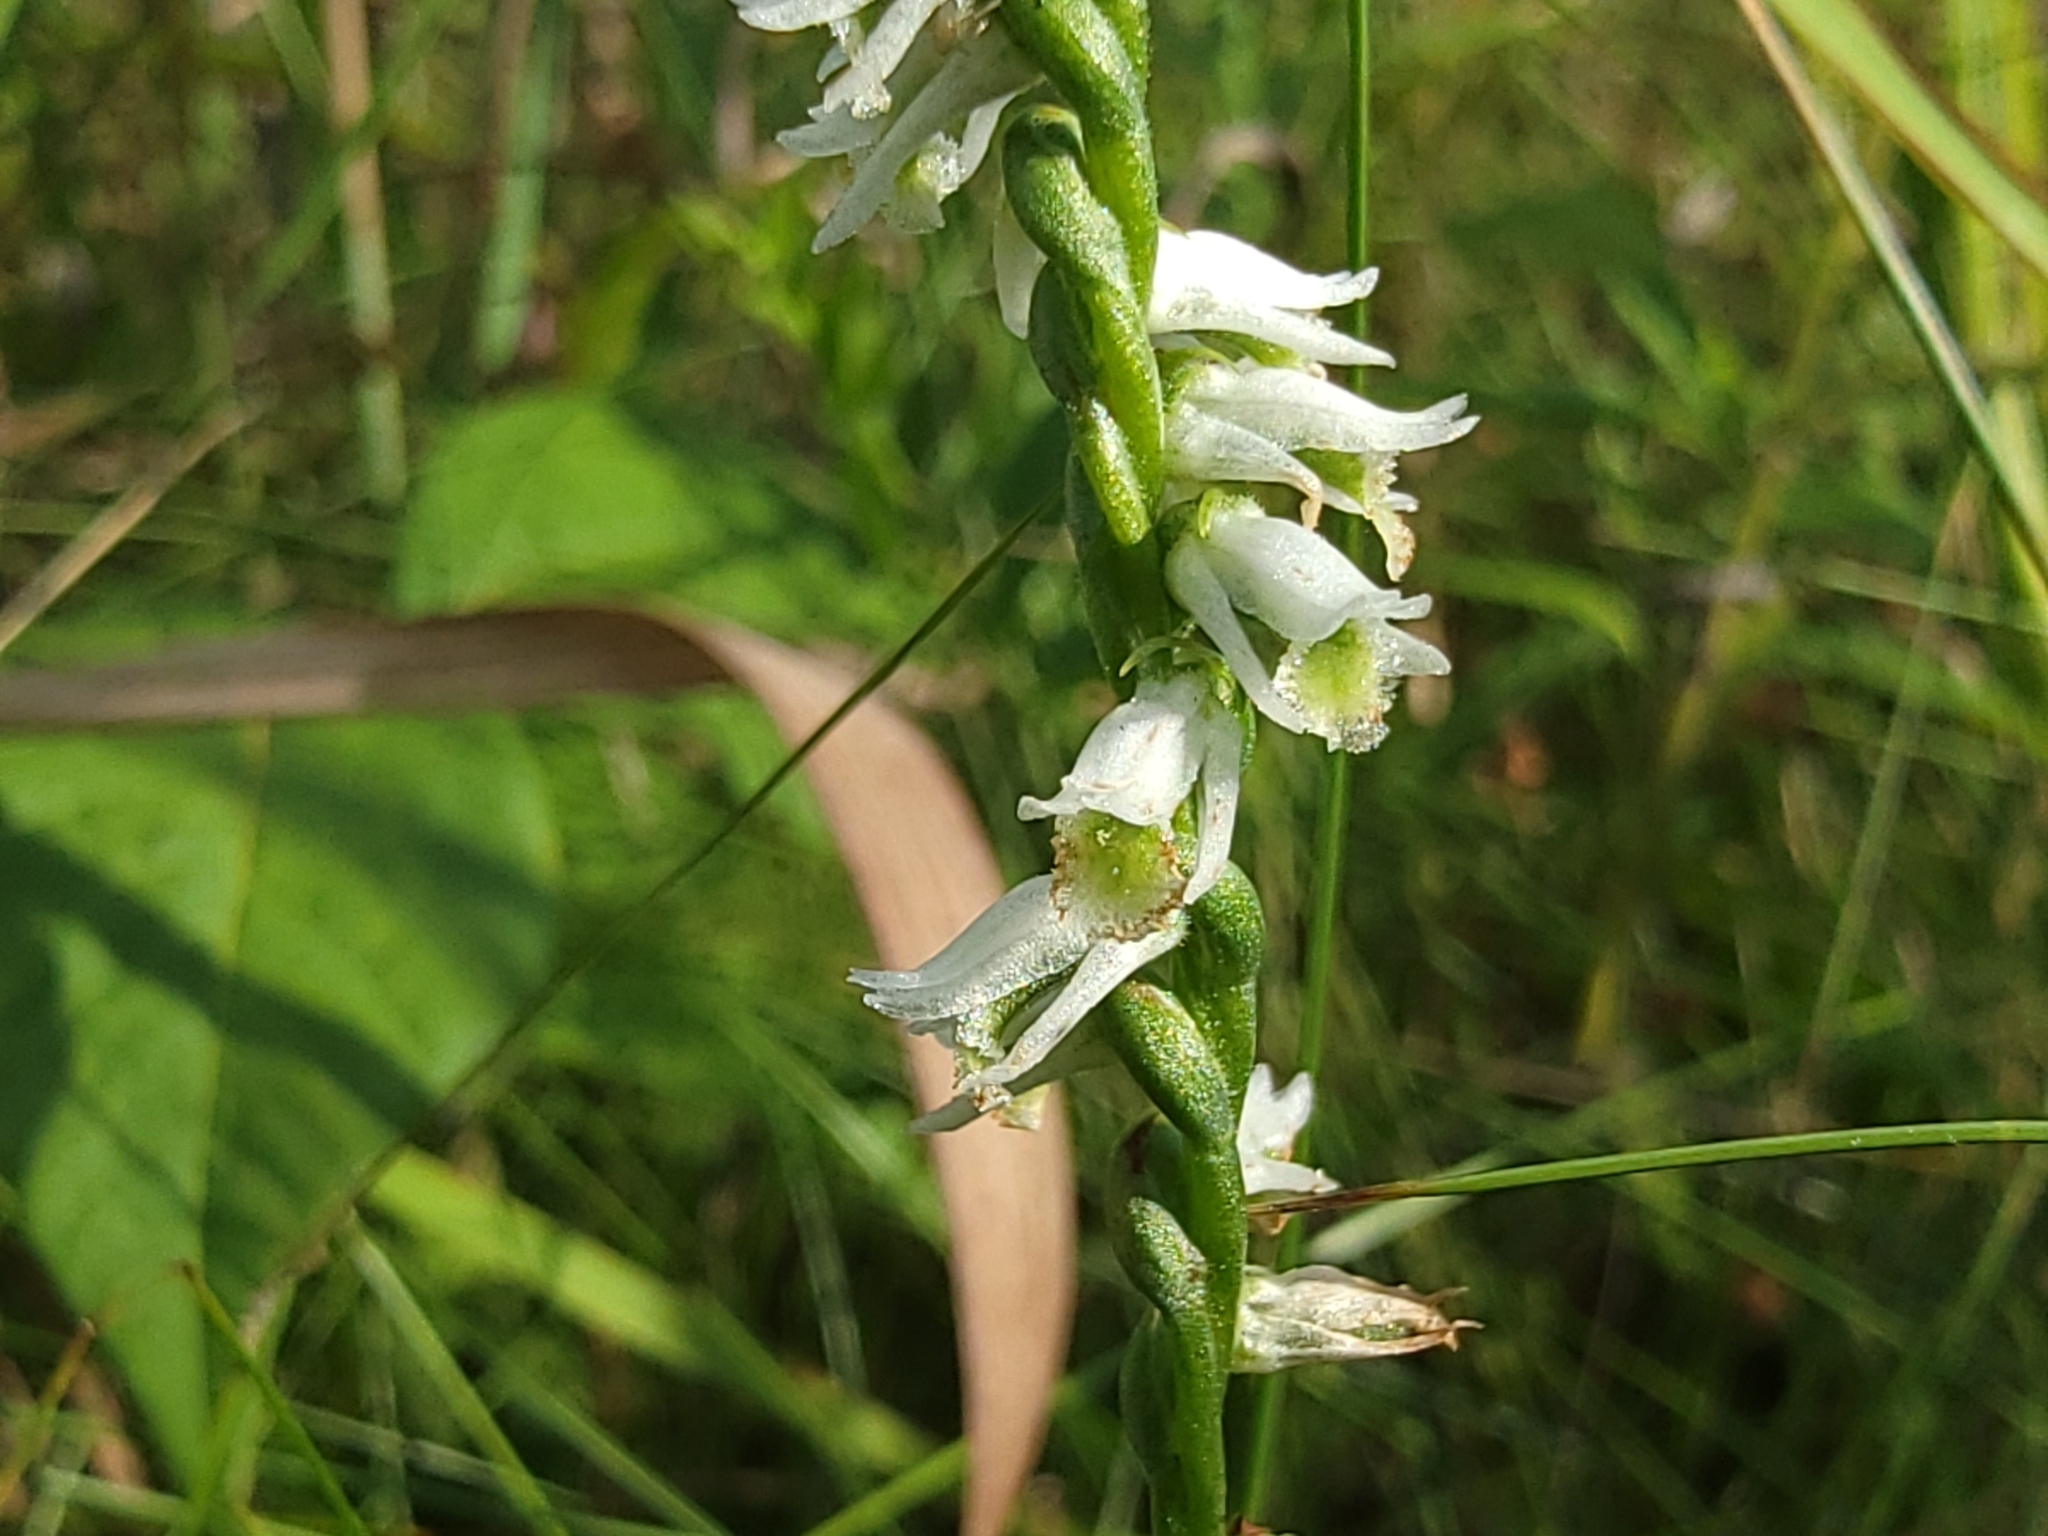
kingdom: Plantae
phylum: Tracheophyta
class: Liliopsida
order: Asparagales
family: Orchidaceae
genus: Spiranthes
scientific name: Spiranthes lacera
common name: Northern slender ladies'-tresses
